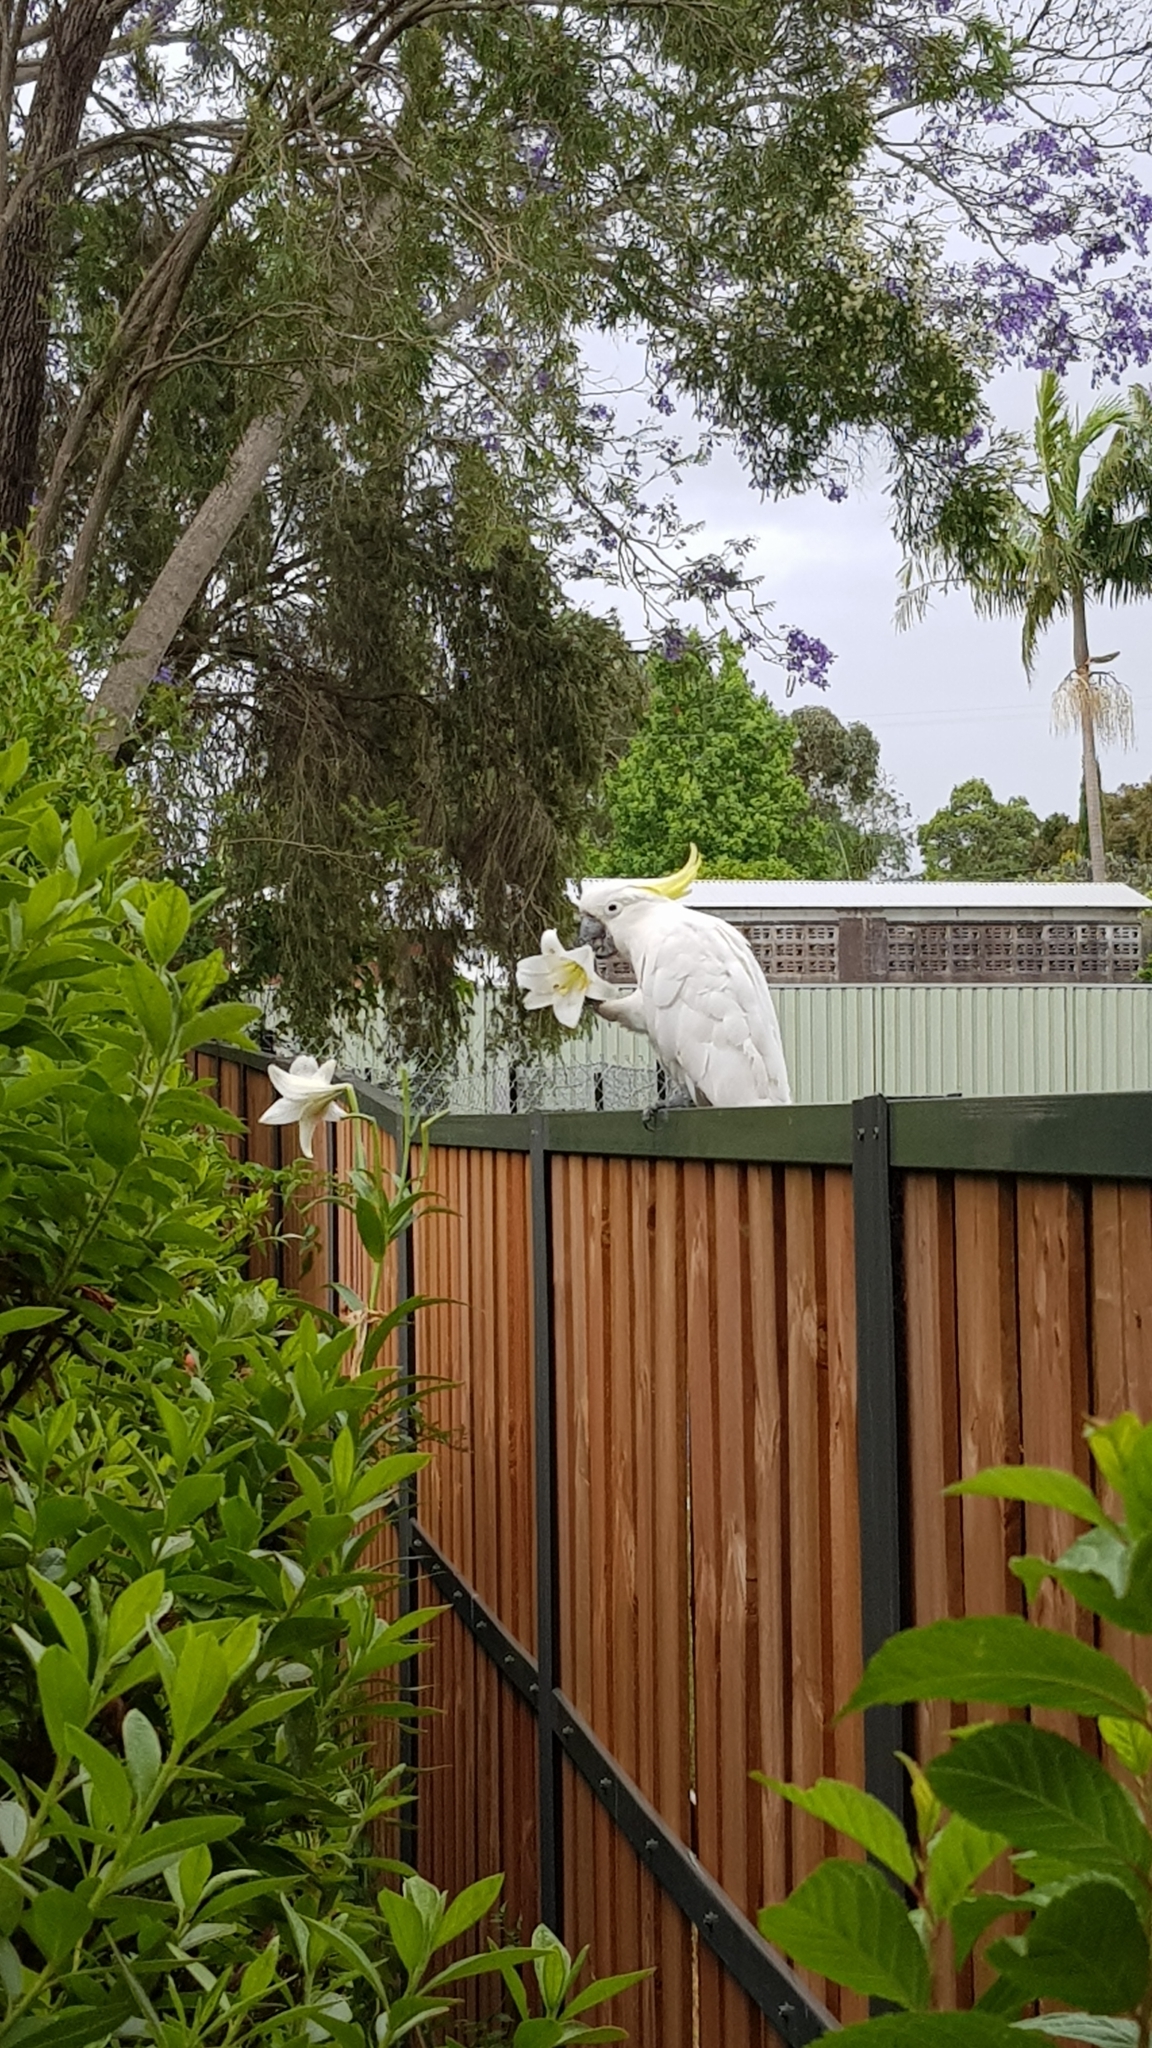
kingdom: Animalia
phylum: Chordata
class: Aves
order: Psittaciformes
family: Psittacidae
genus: Cacatua
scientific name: Cacatua galerita
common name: Sulphur-crested cockatoo
